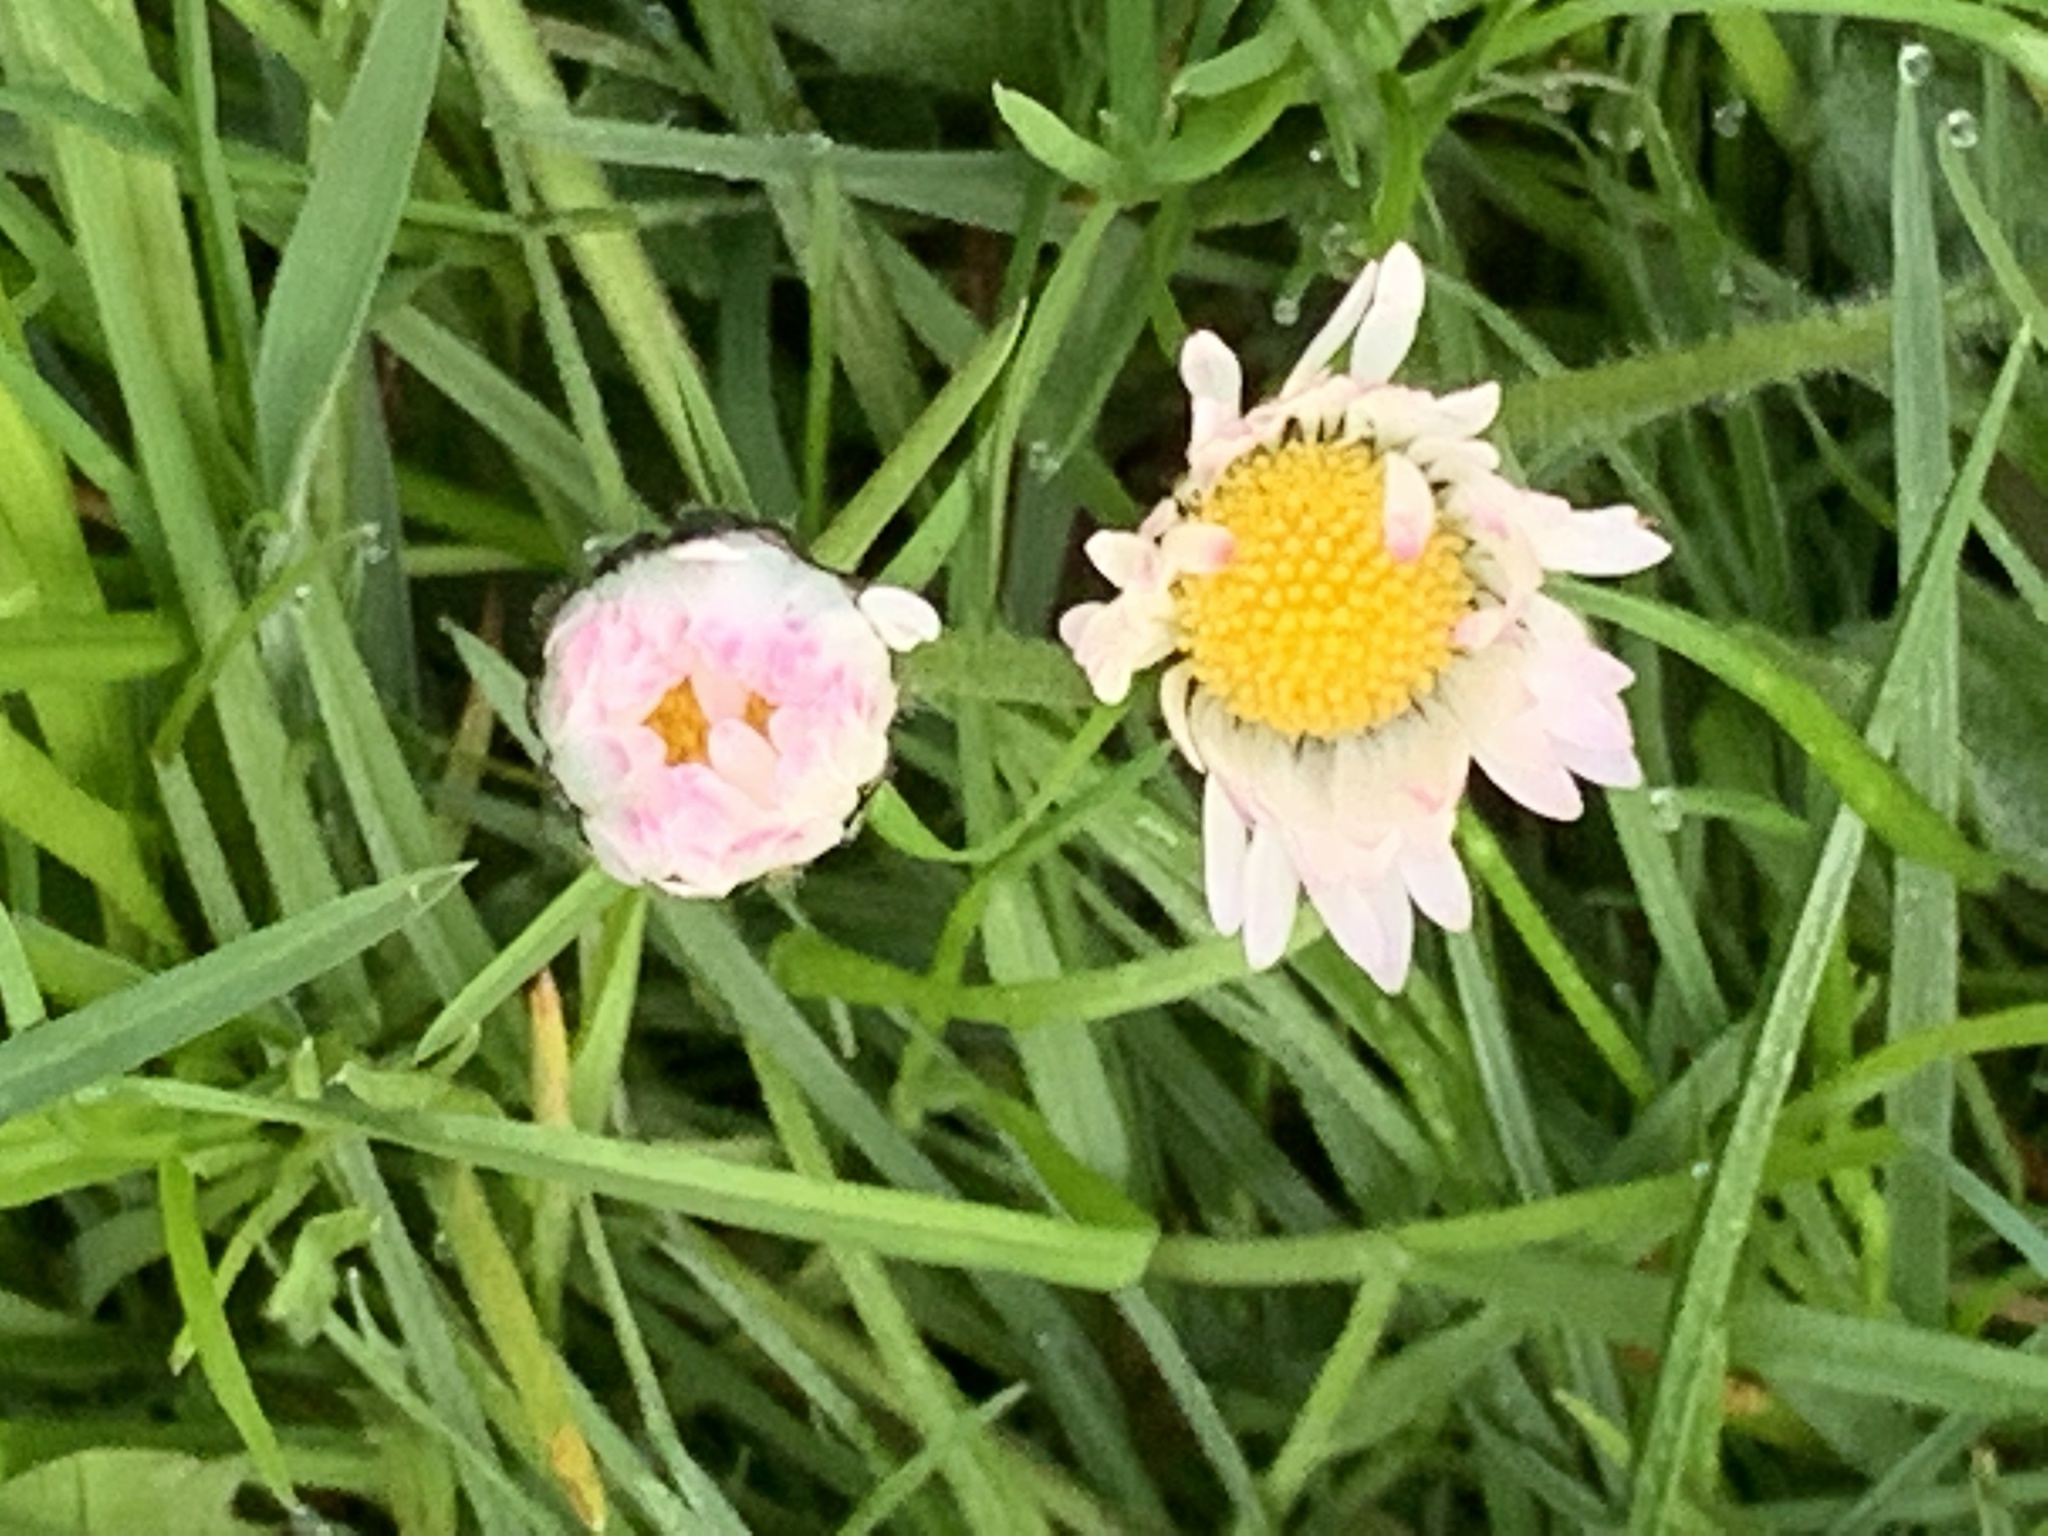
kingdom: Plantae
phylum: Tracheophyta
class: Magnoliopsida
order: Asterales
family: Asteraceae
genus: Bellis
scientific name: Bellis perennis
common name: Lawndaisy
